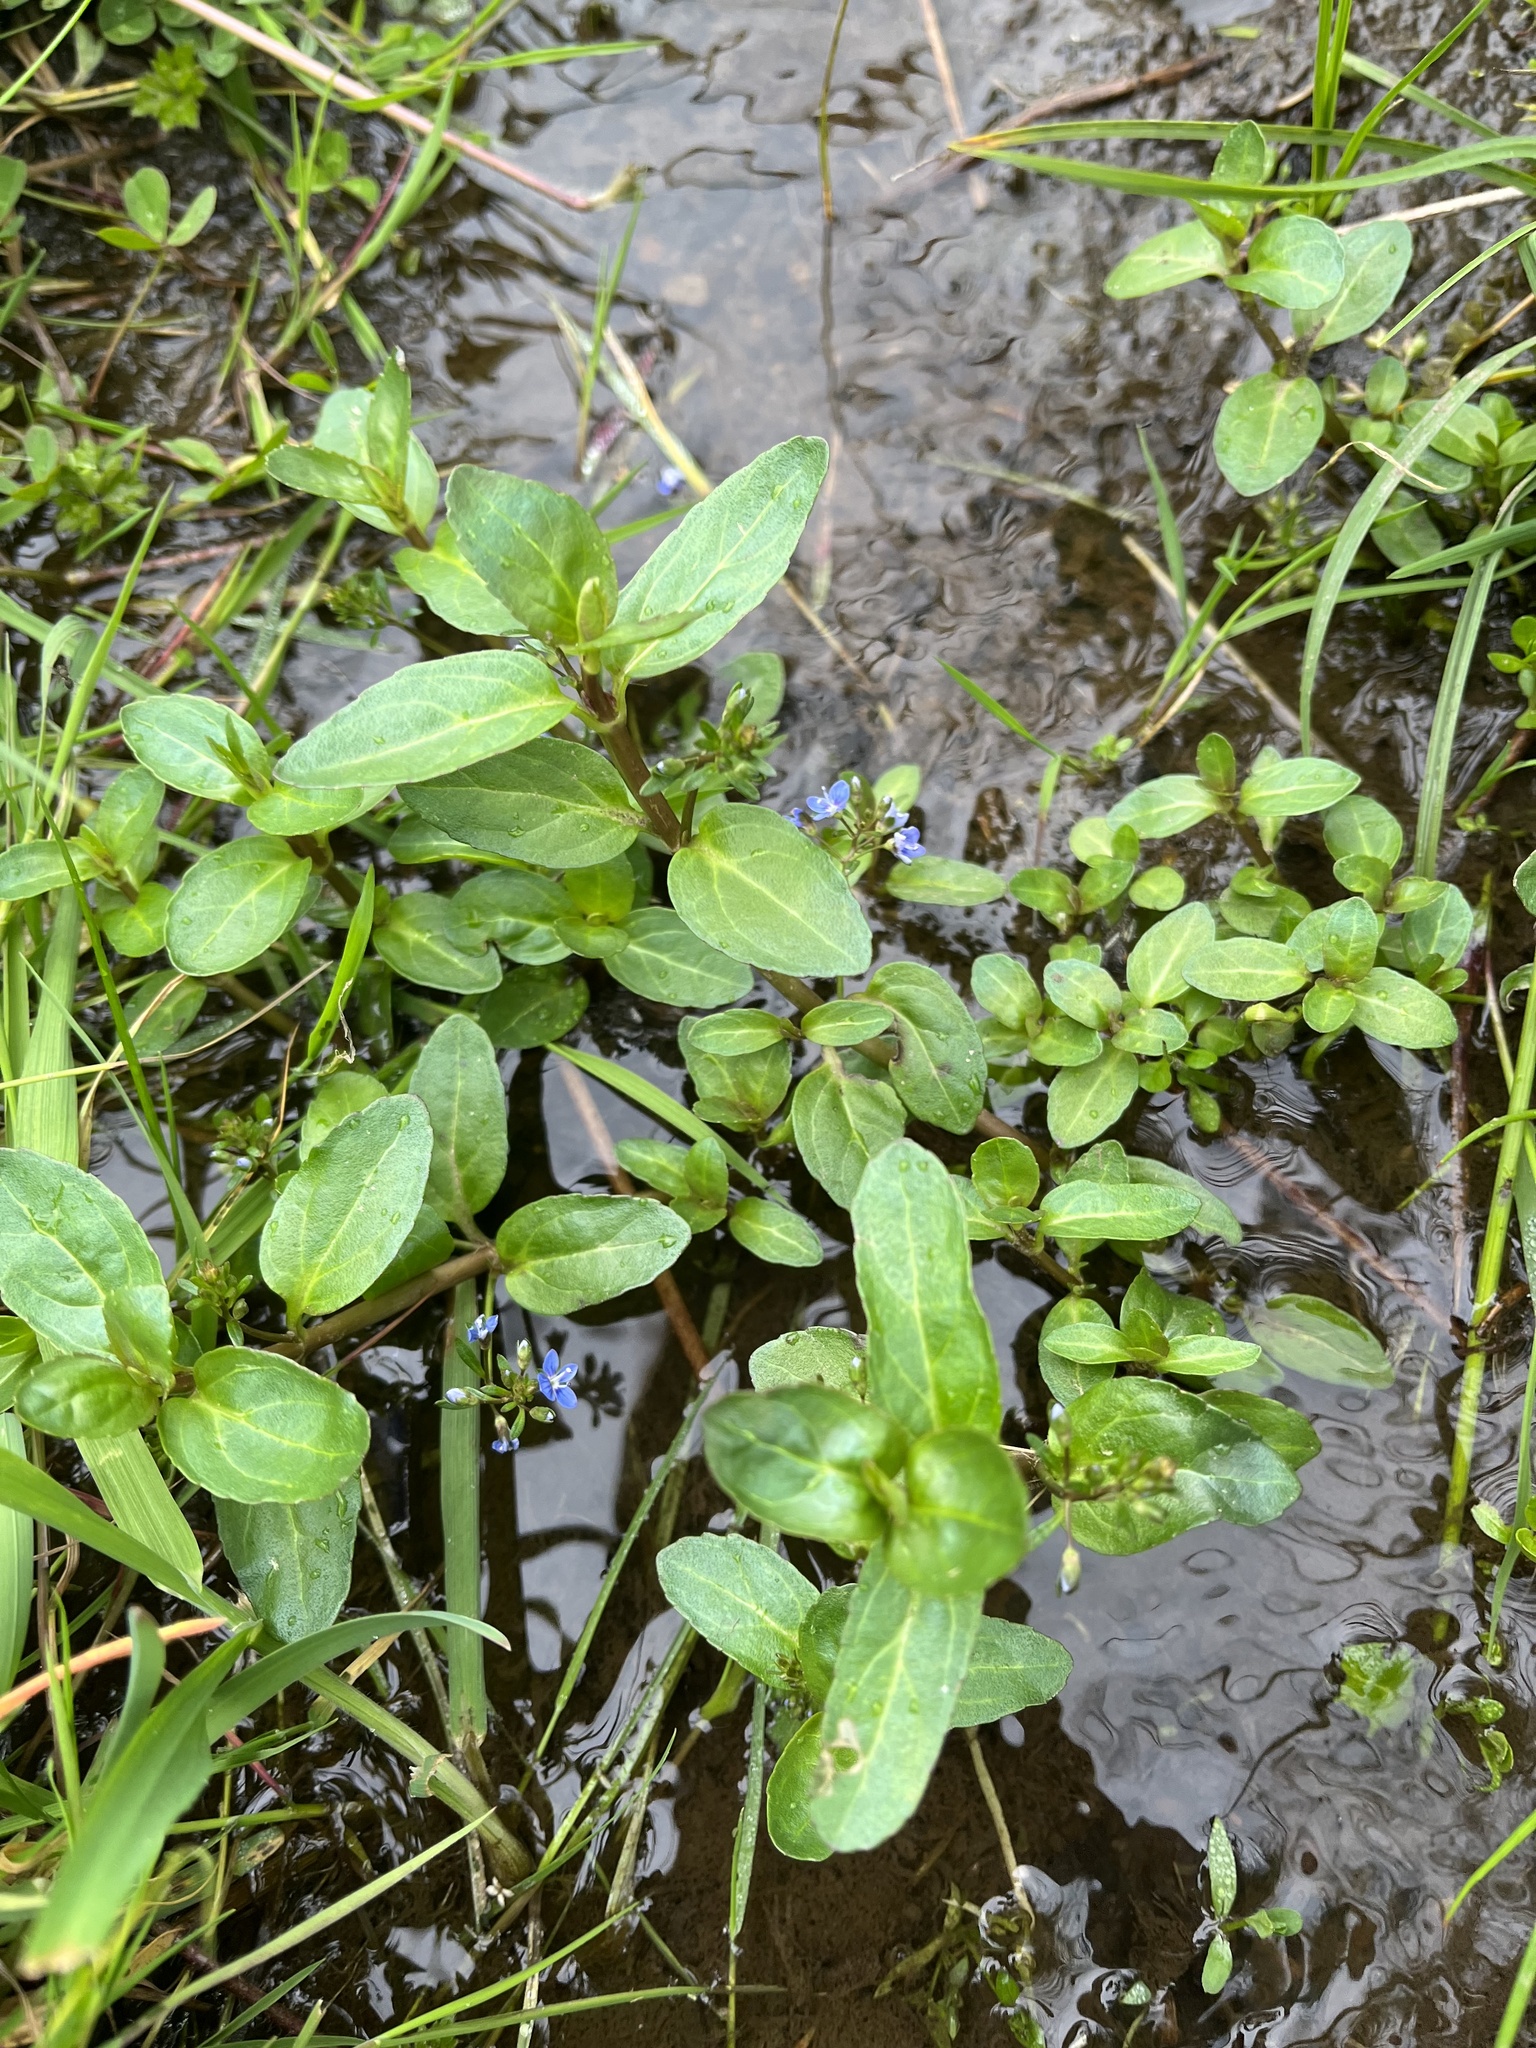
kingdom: Plantae
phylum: Tracheophyta
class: Magnoliopsida
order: Lamiales
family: Plantaginaceae
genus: Veronica
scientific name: Veronica beccabunga
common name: Brooklime
